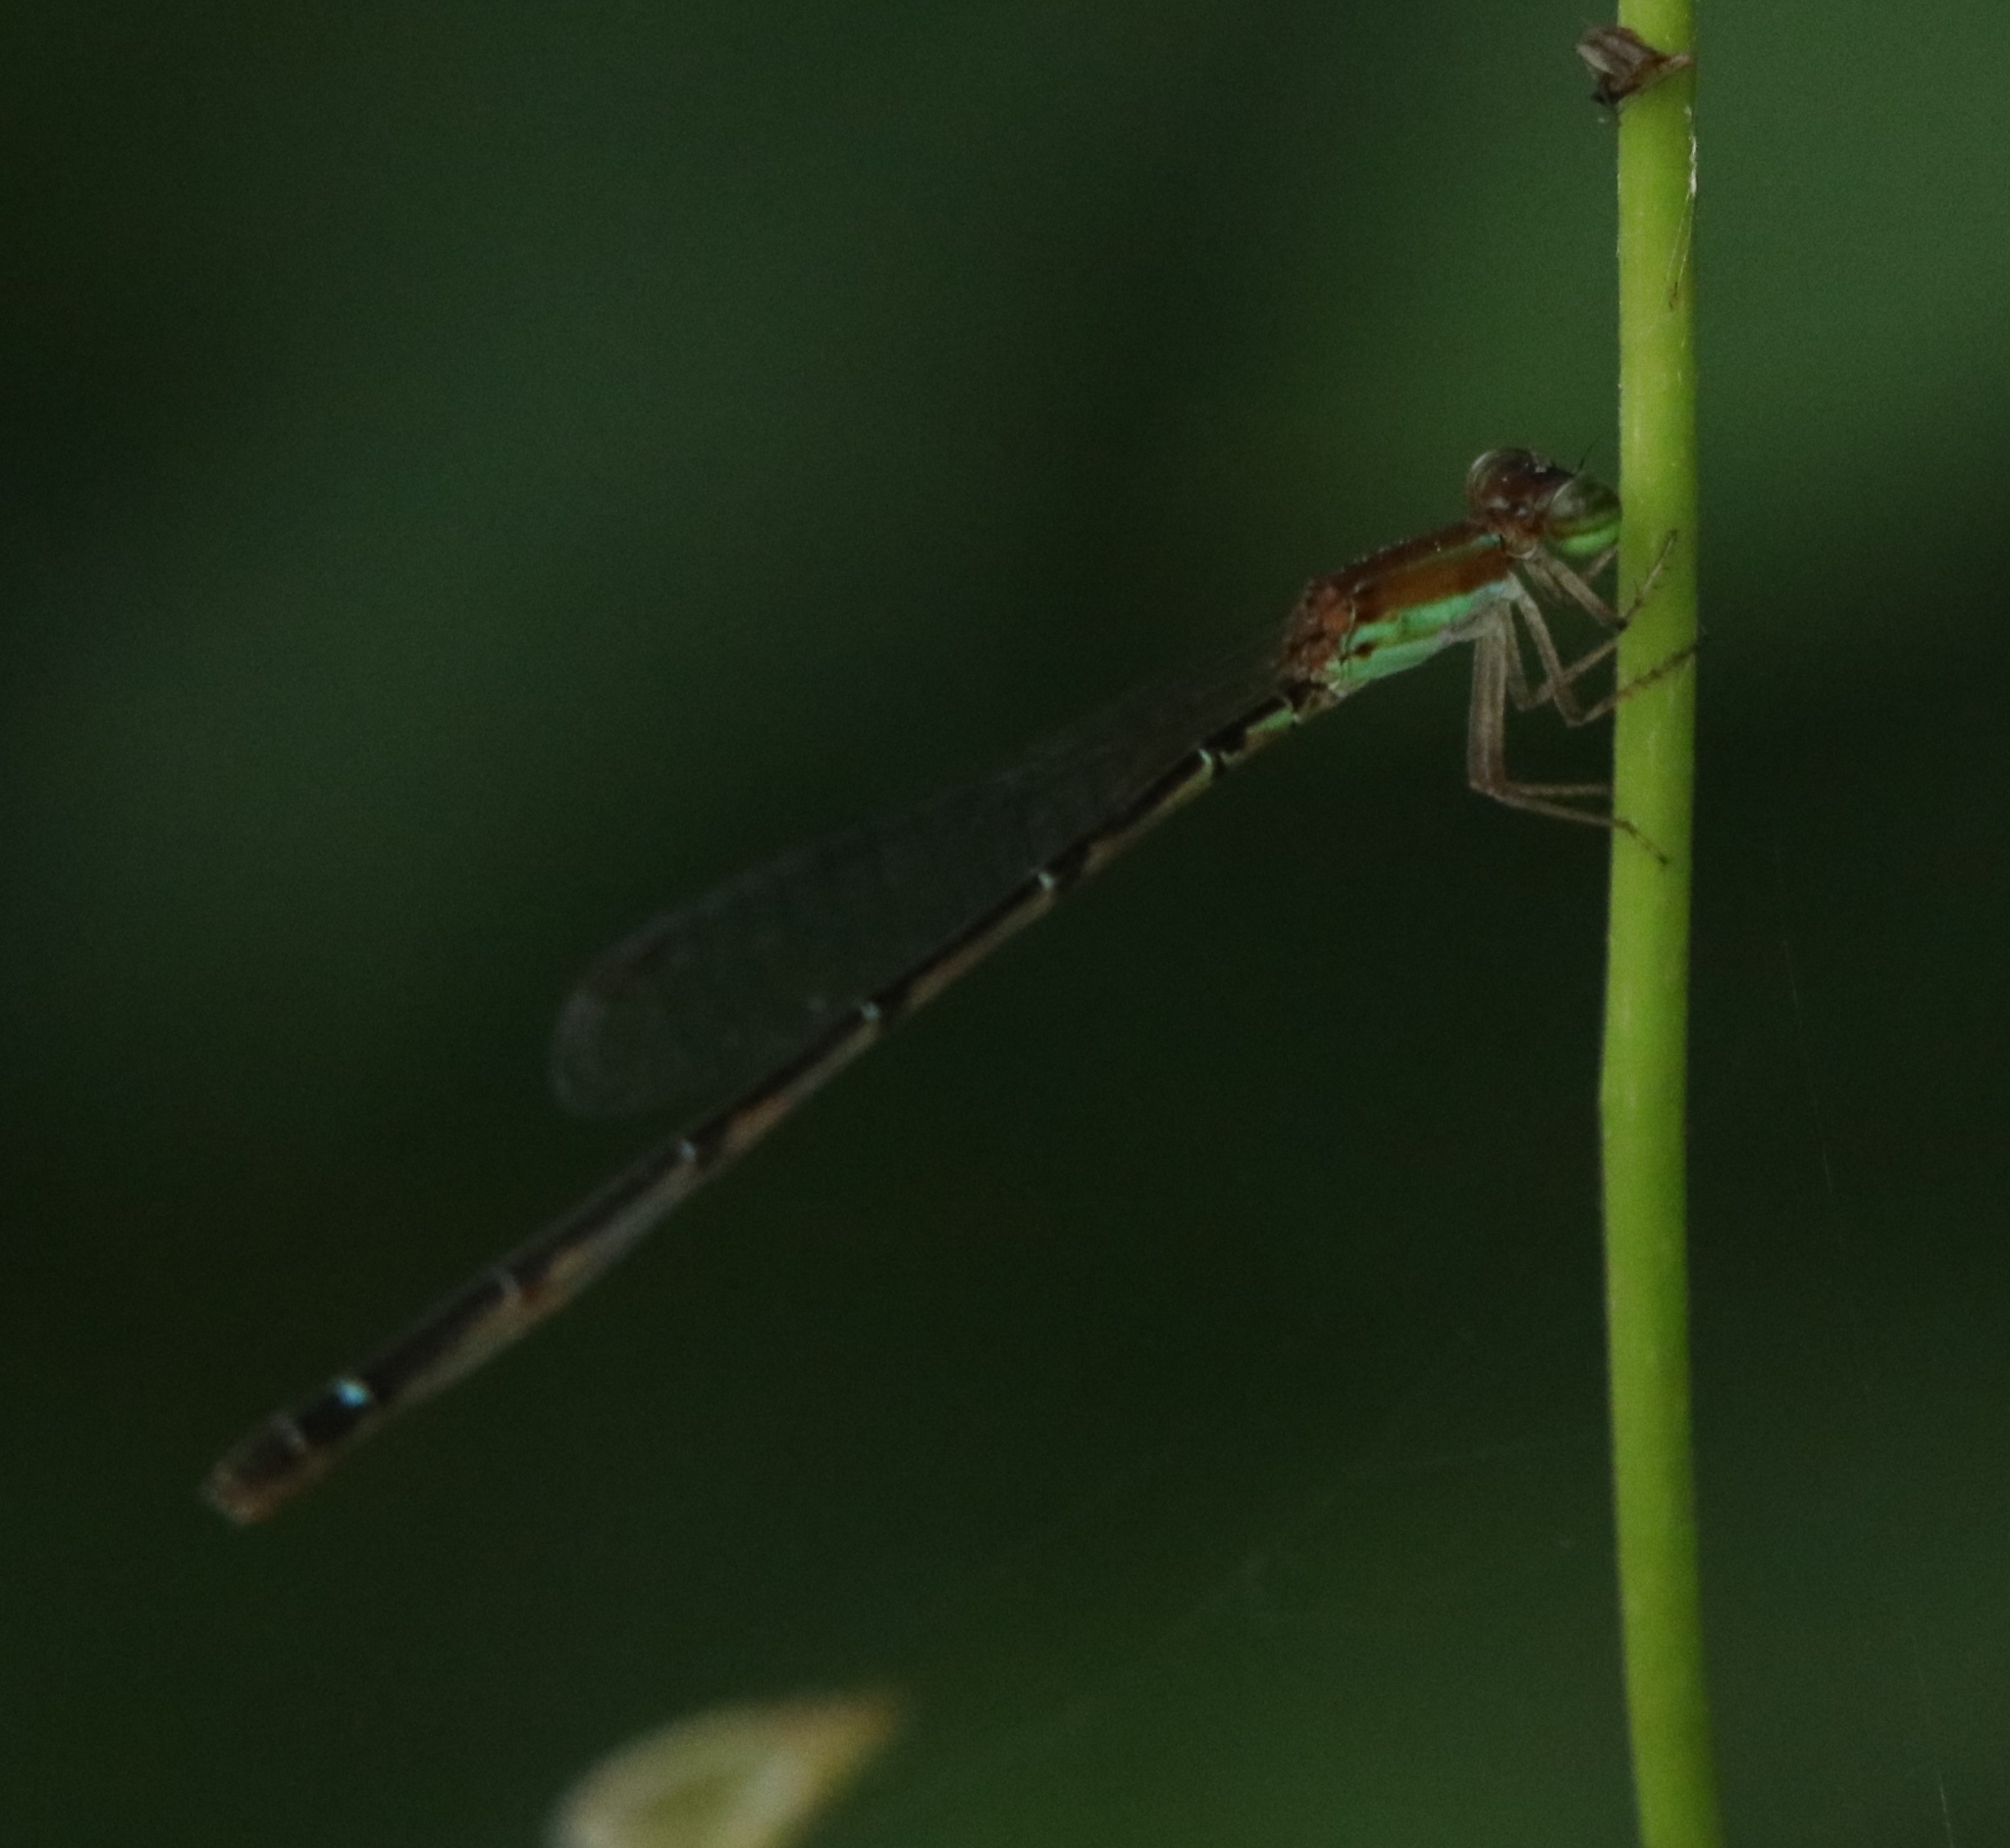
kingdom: Animalia
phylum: Arthropoda
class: Insecta
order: Odonata
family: Coenagrionidae
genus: Mortonagrion
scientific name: Mortonagrion varralli
